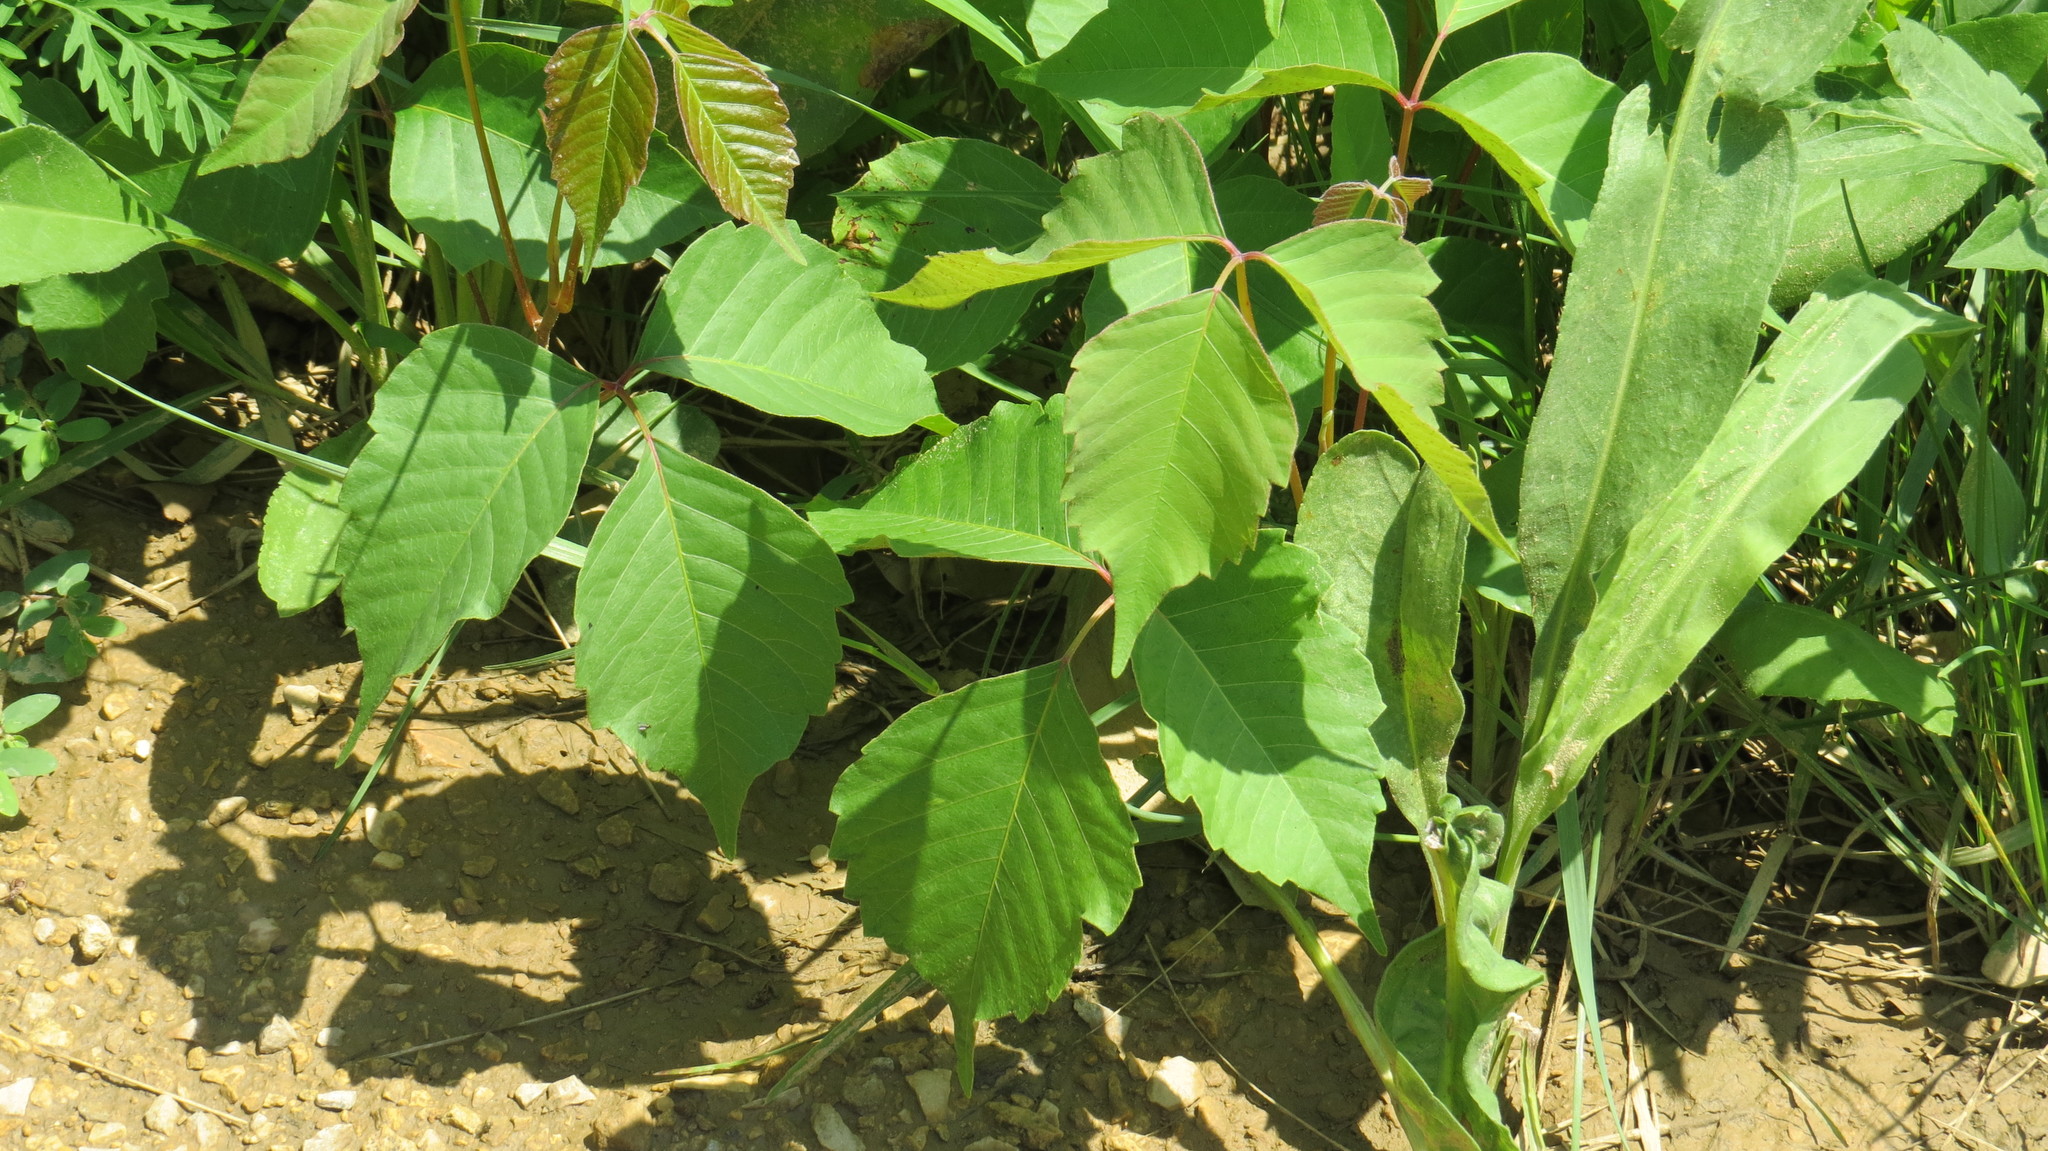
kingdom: Plantae
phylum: Tracheophyta
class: Magnoliopsida
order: Sapindales
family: Anacardiaceae
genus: Toxicodendron
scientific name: Toxicodendron rydbergii
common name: Rydberg's poison-ivy
